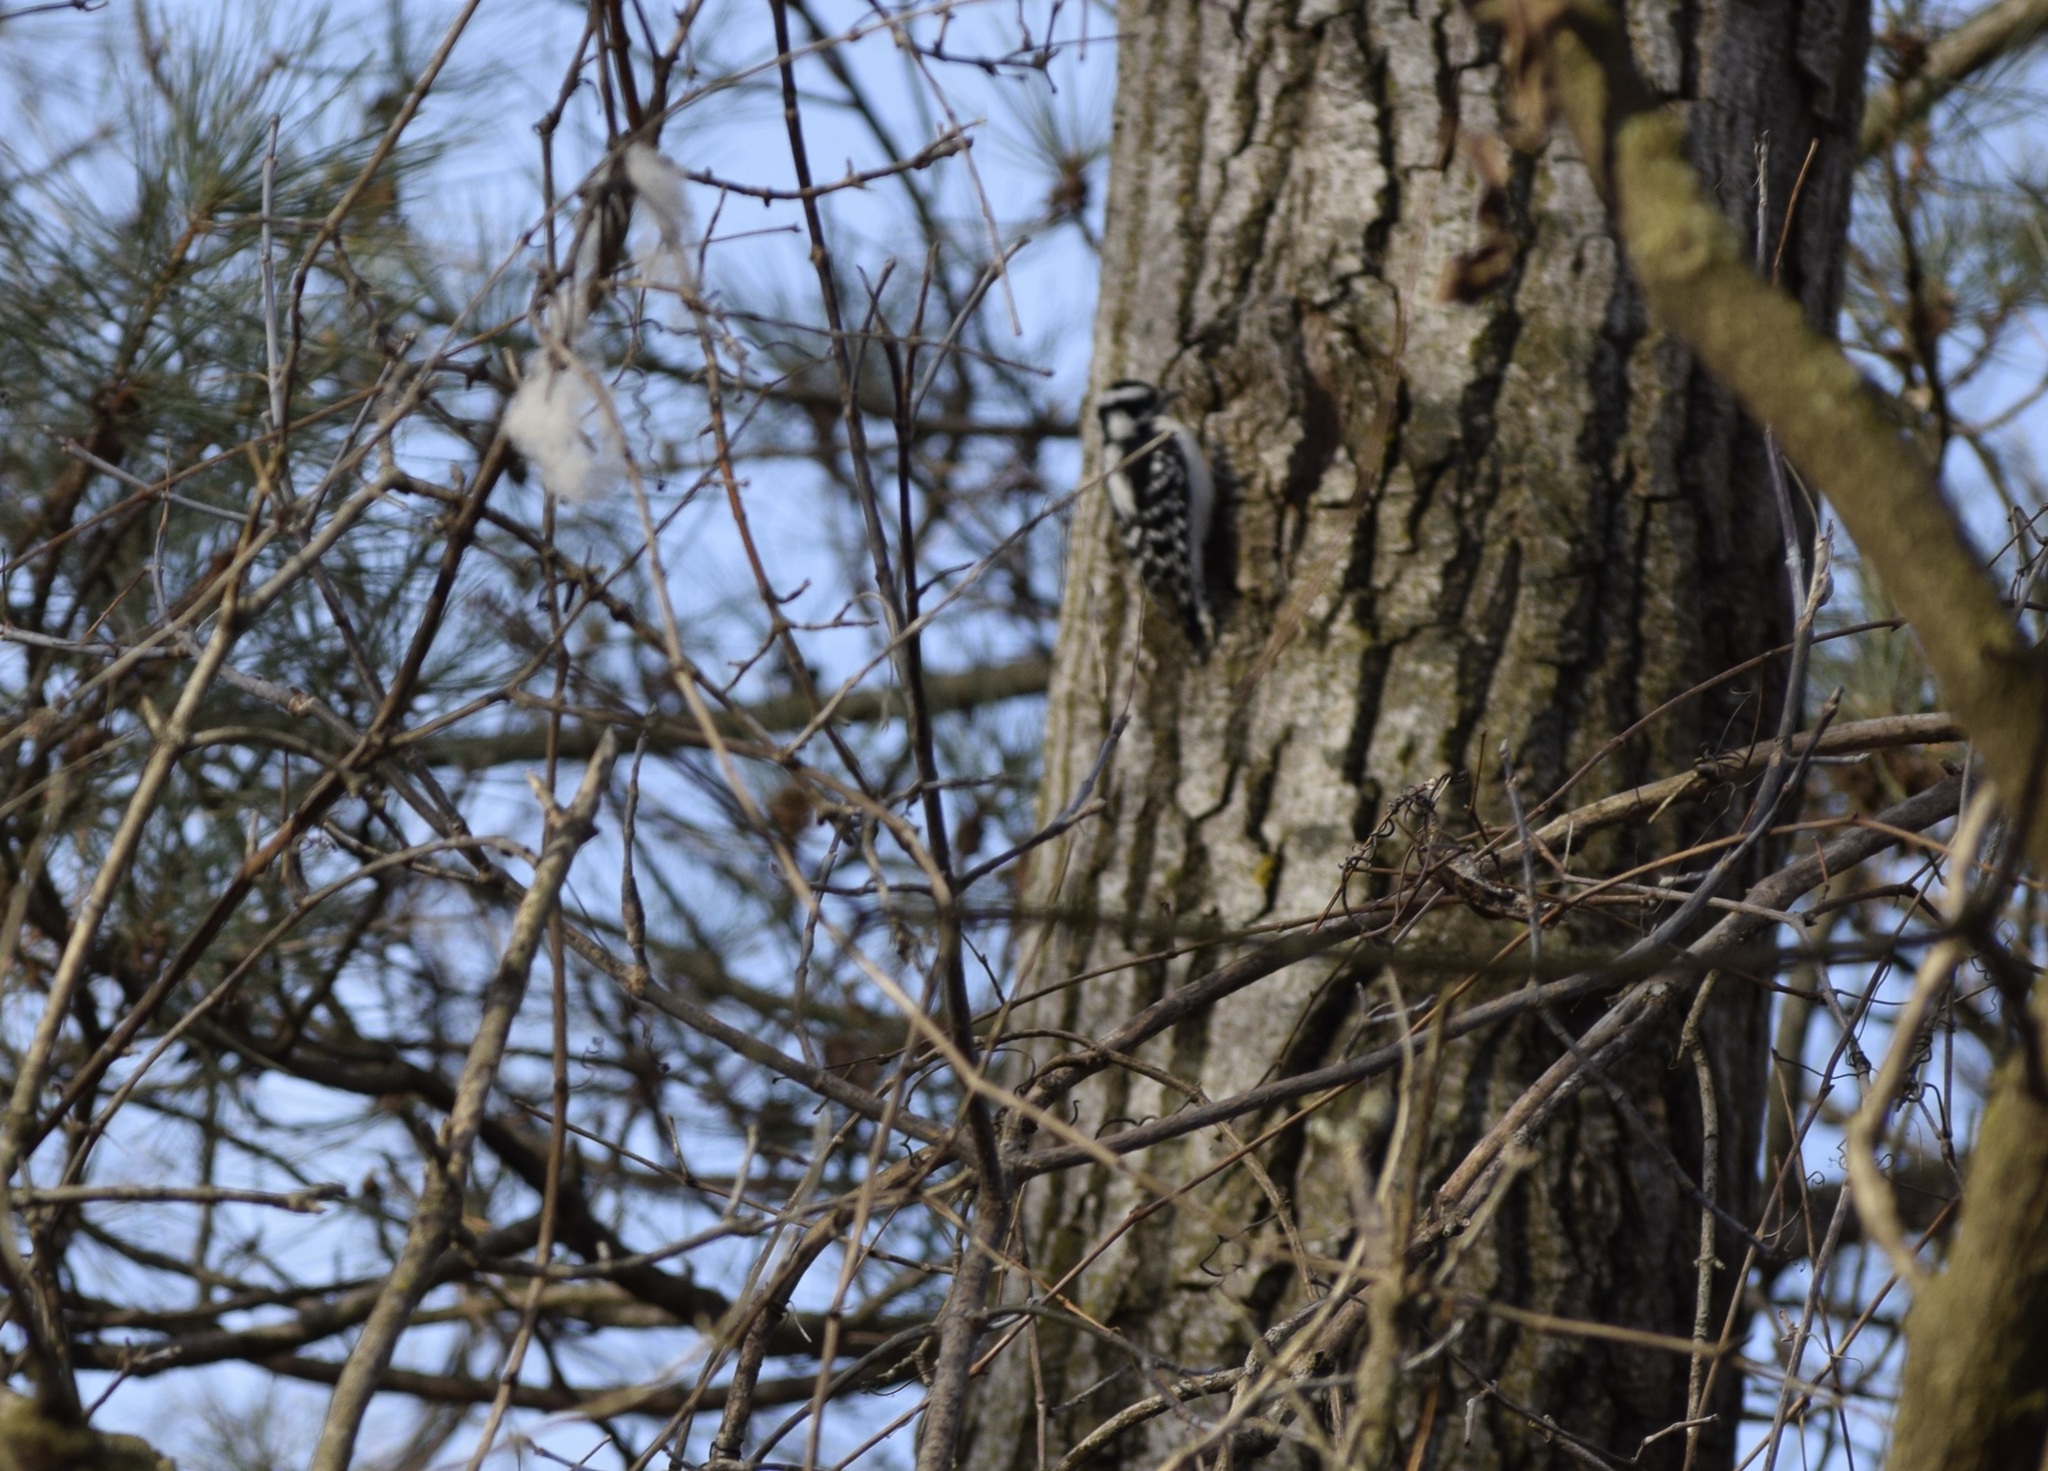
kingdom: Animalia
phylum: Chordata
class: Aves
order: Piciformes
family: Picidae
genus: Dryobates
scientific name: Dryobates pubescens
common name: Downy woodpecker
